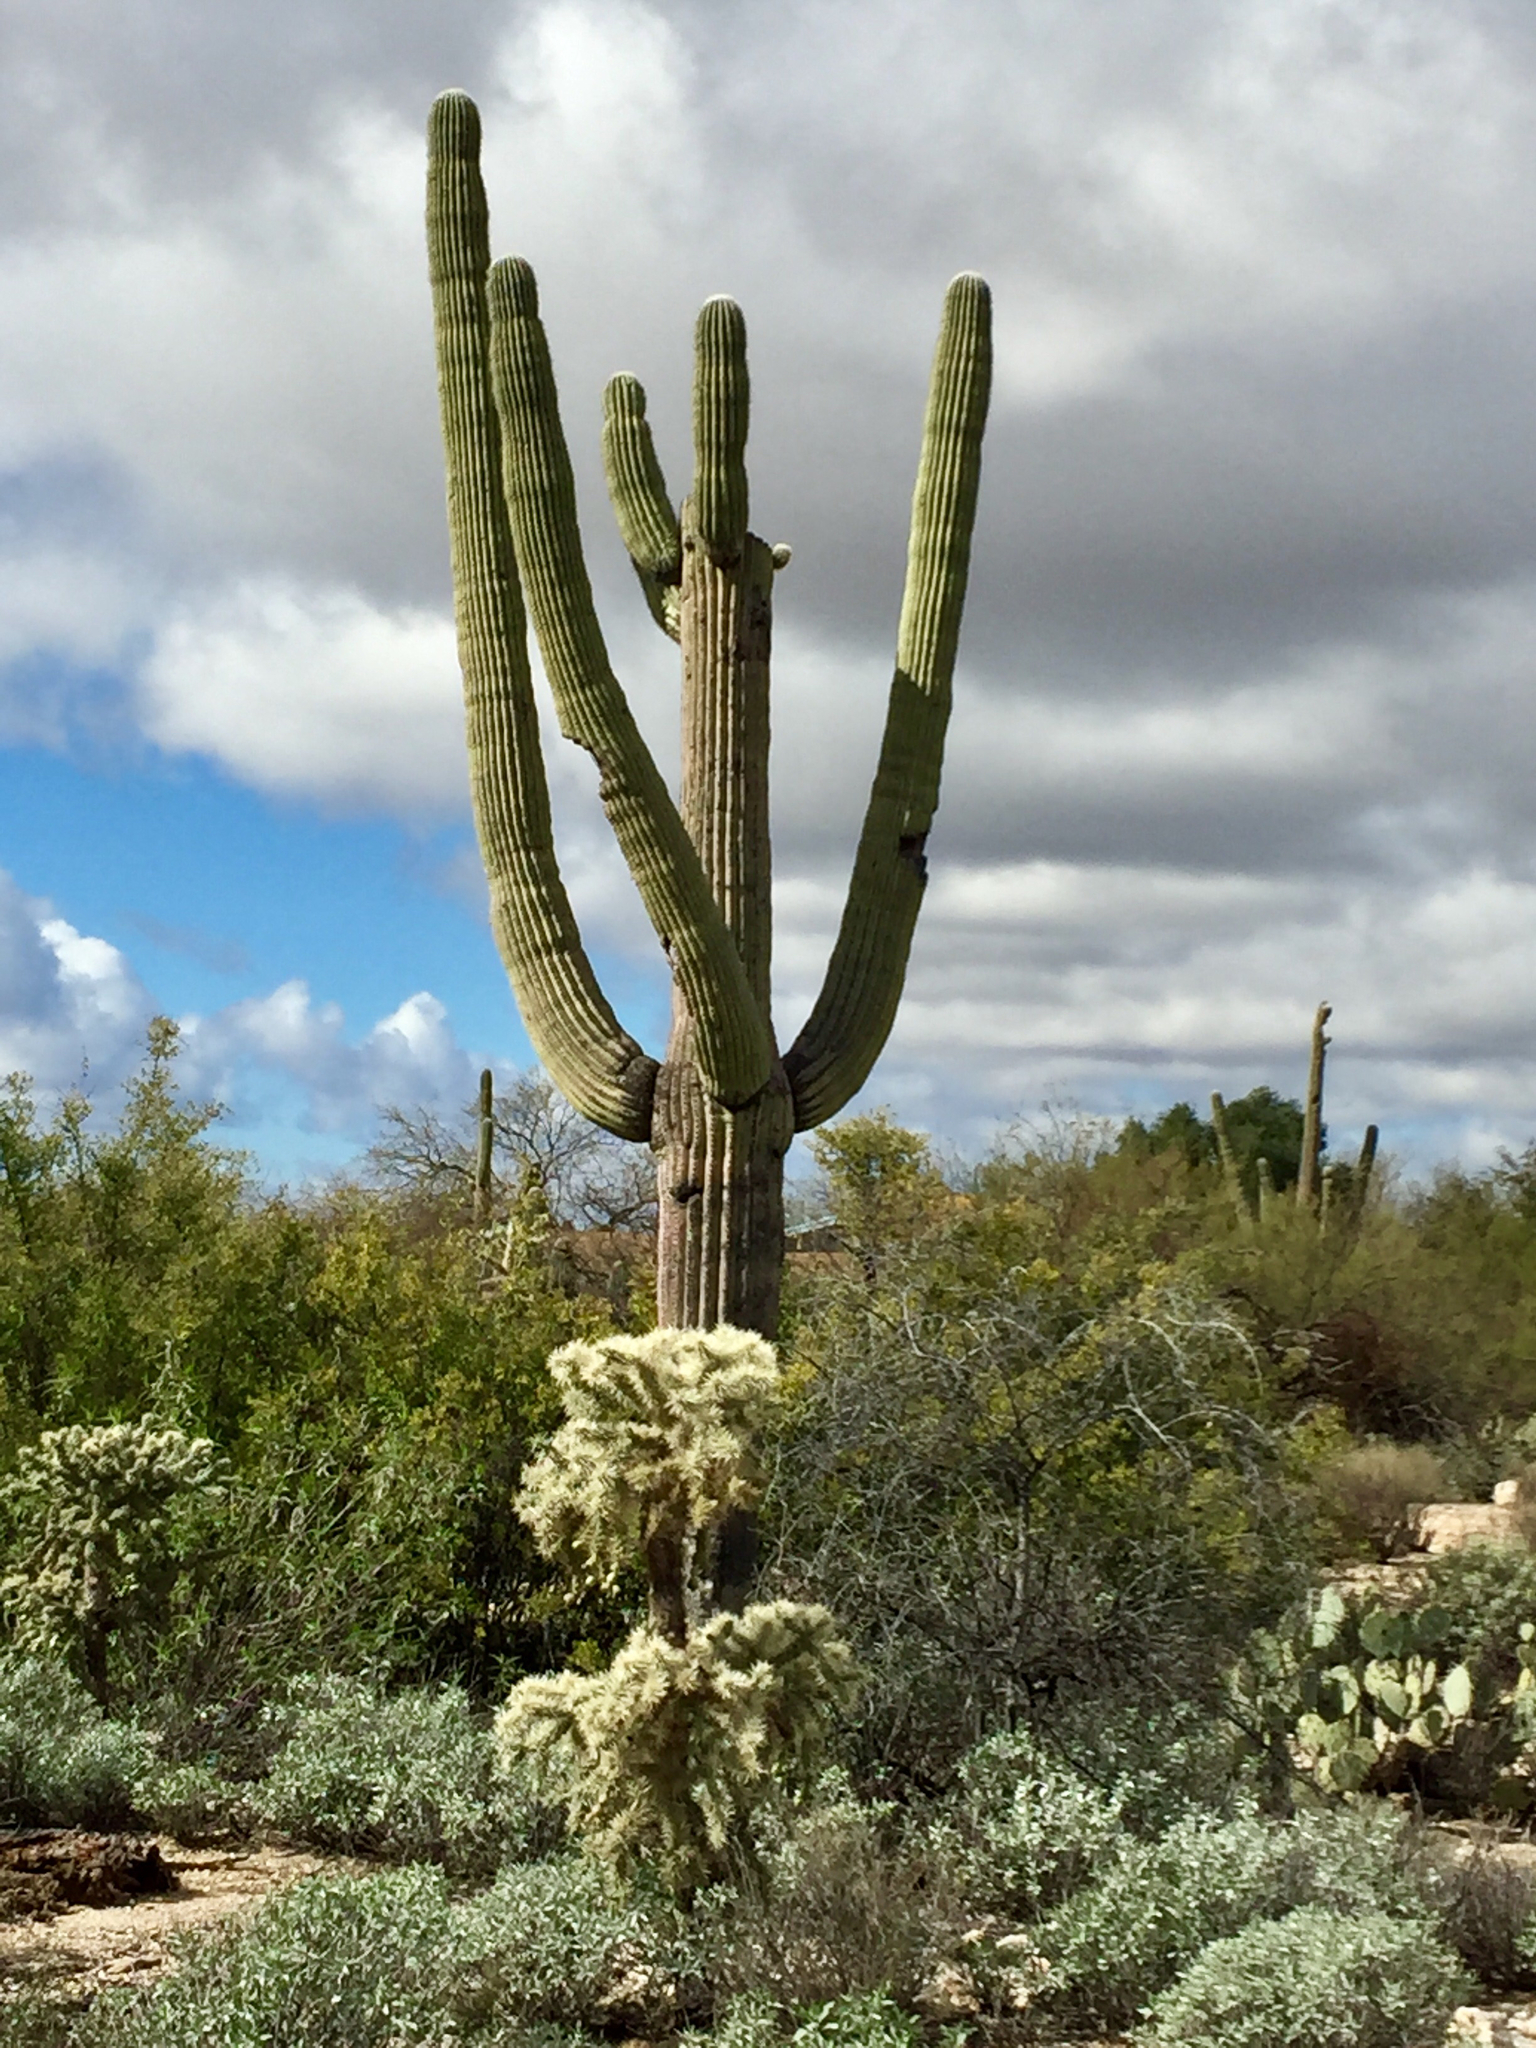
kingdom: Plantae
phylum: Tracheophyta
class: Magnoliopsida
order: Caryophyllales
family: Cactaceae
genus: Carnegiea
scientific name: Carnegiea gigantea
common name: Saguaro
